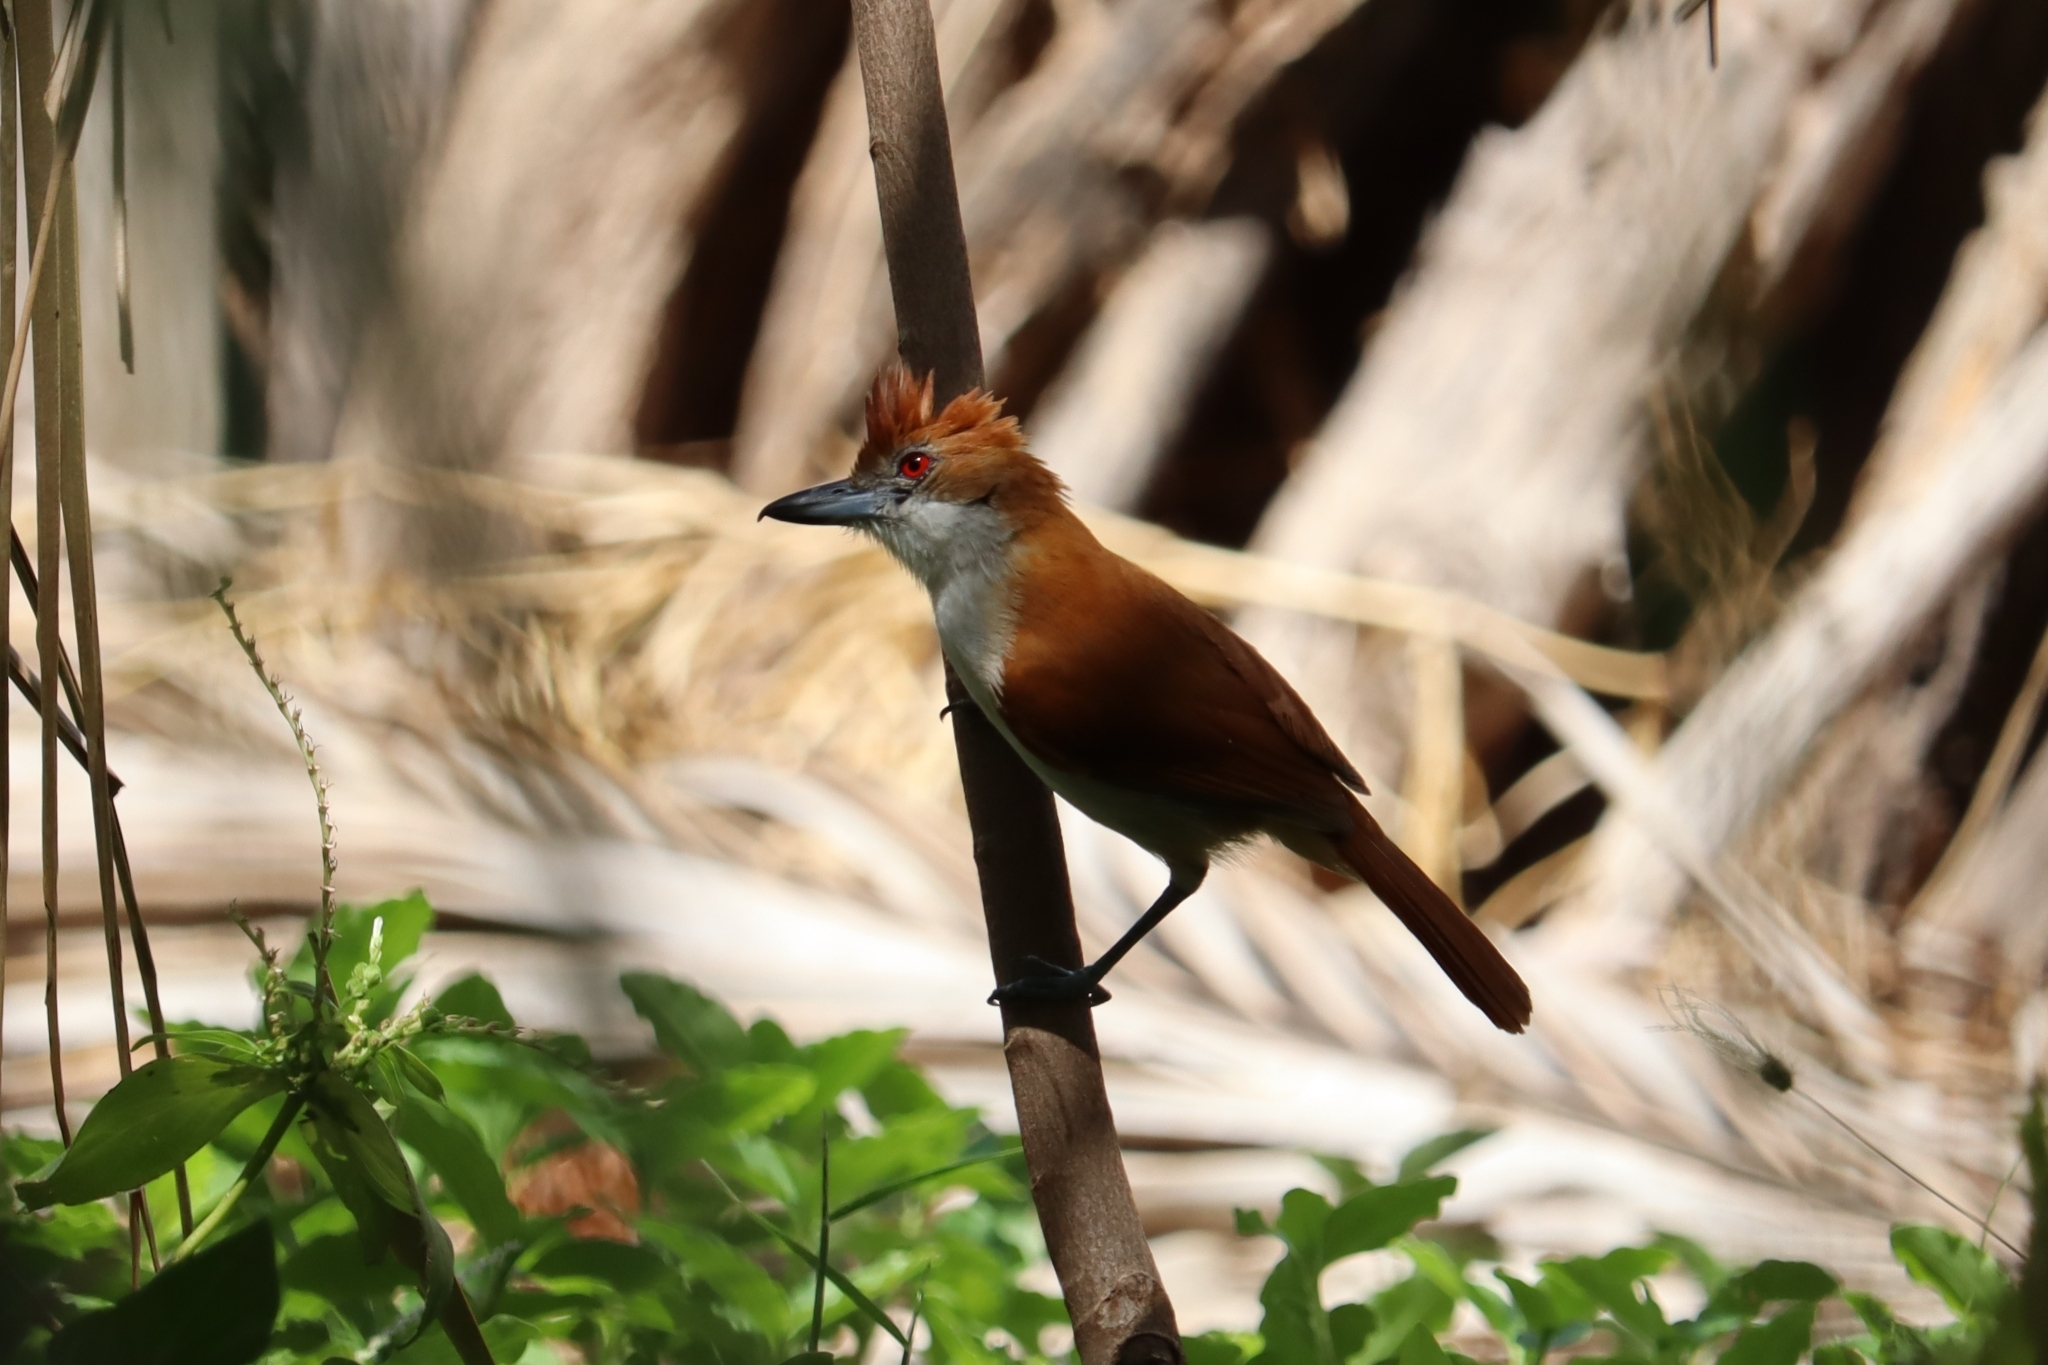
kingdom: Animalia
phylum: Chordata
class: Aves
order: Passeriformes
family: Thamnophilidae
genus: Taraba
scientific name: Taraba major
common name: Great antshrike
